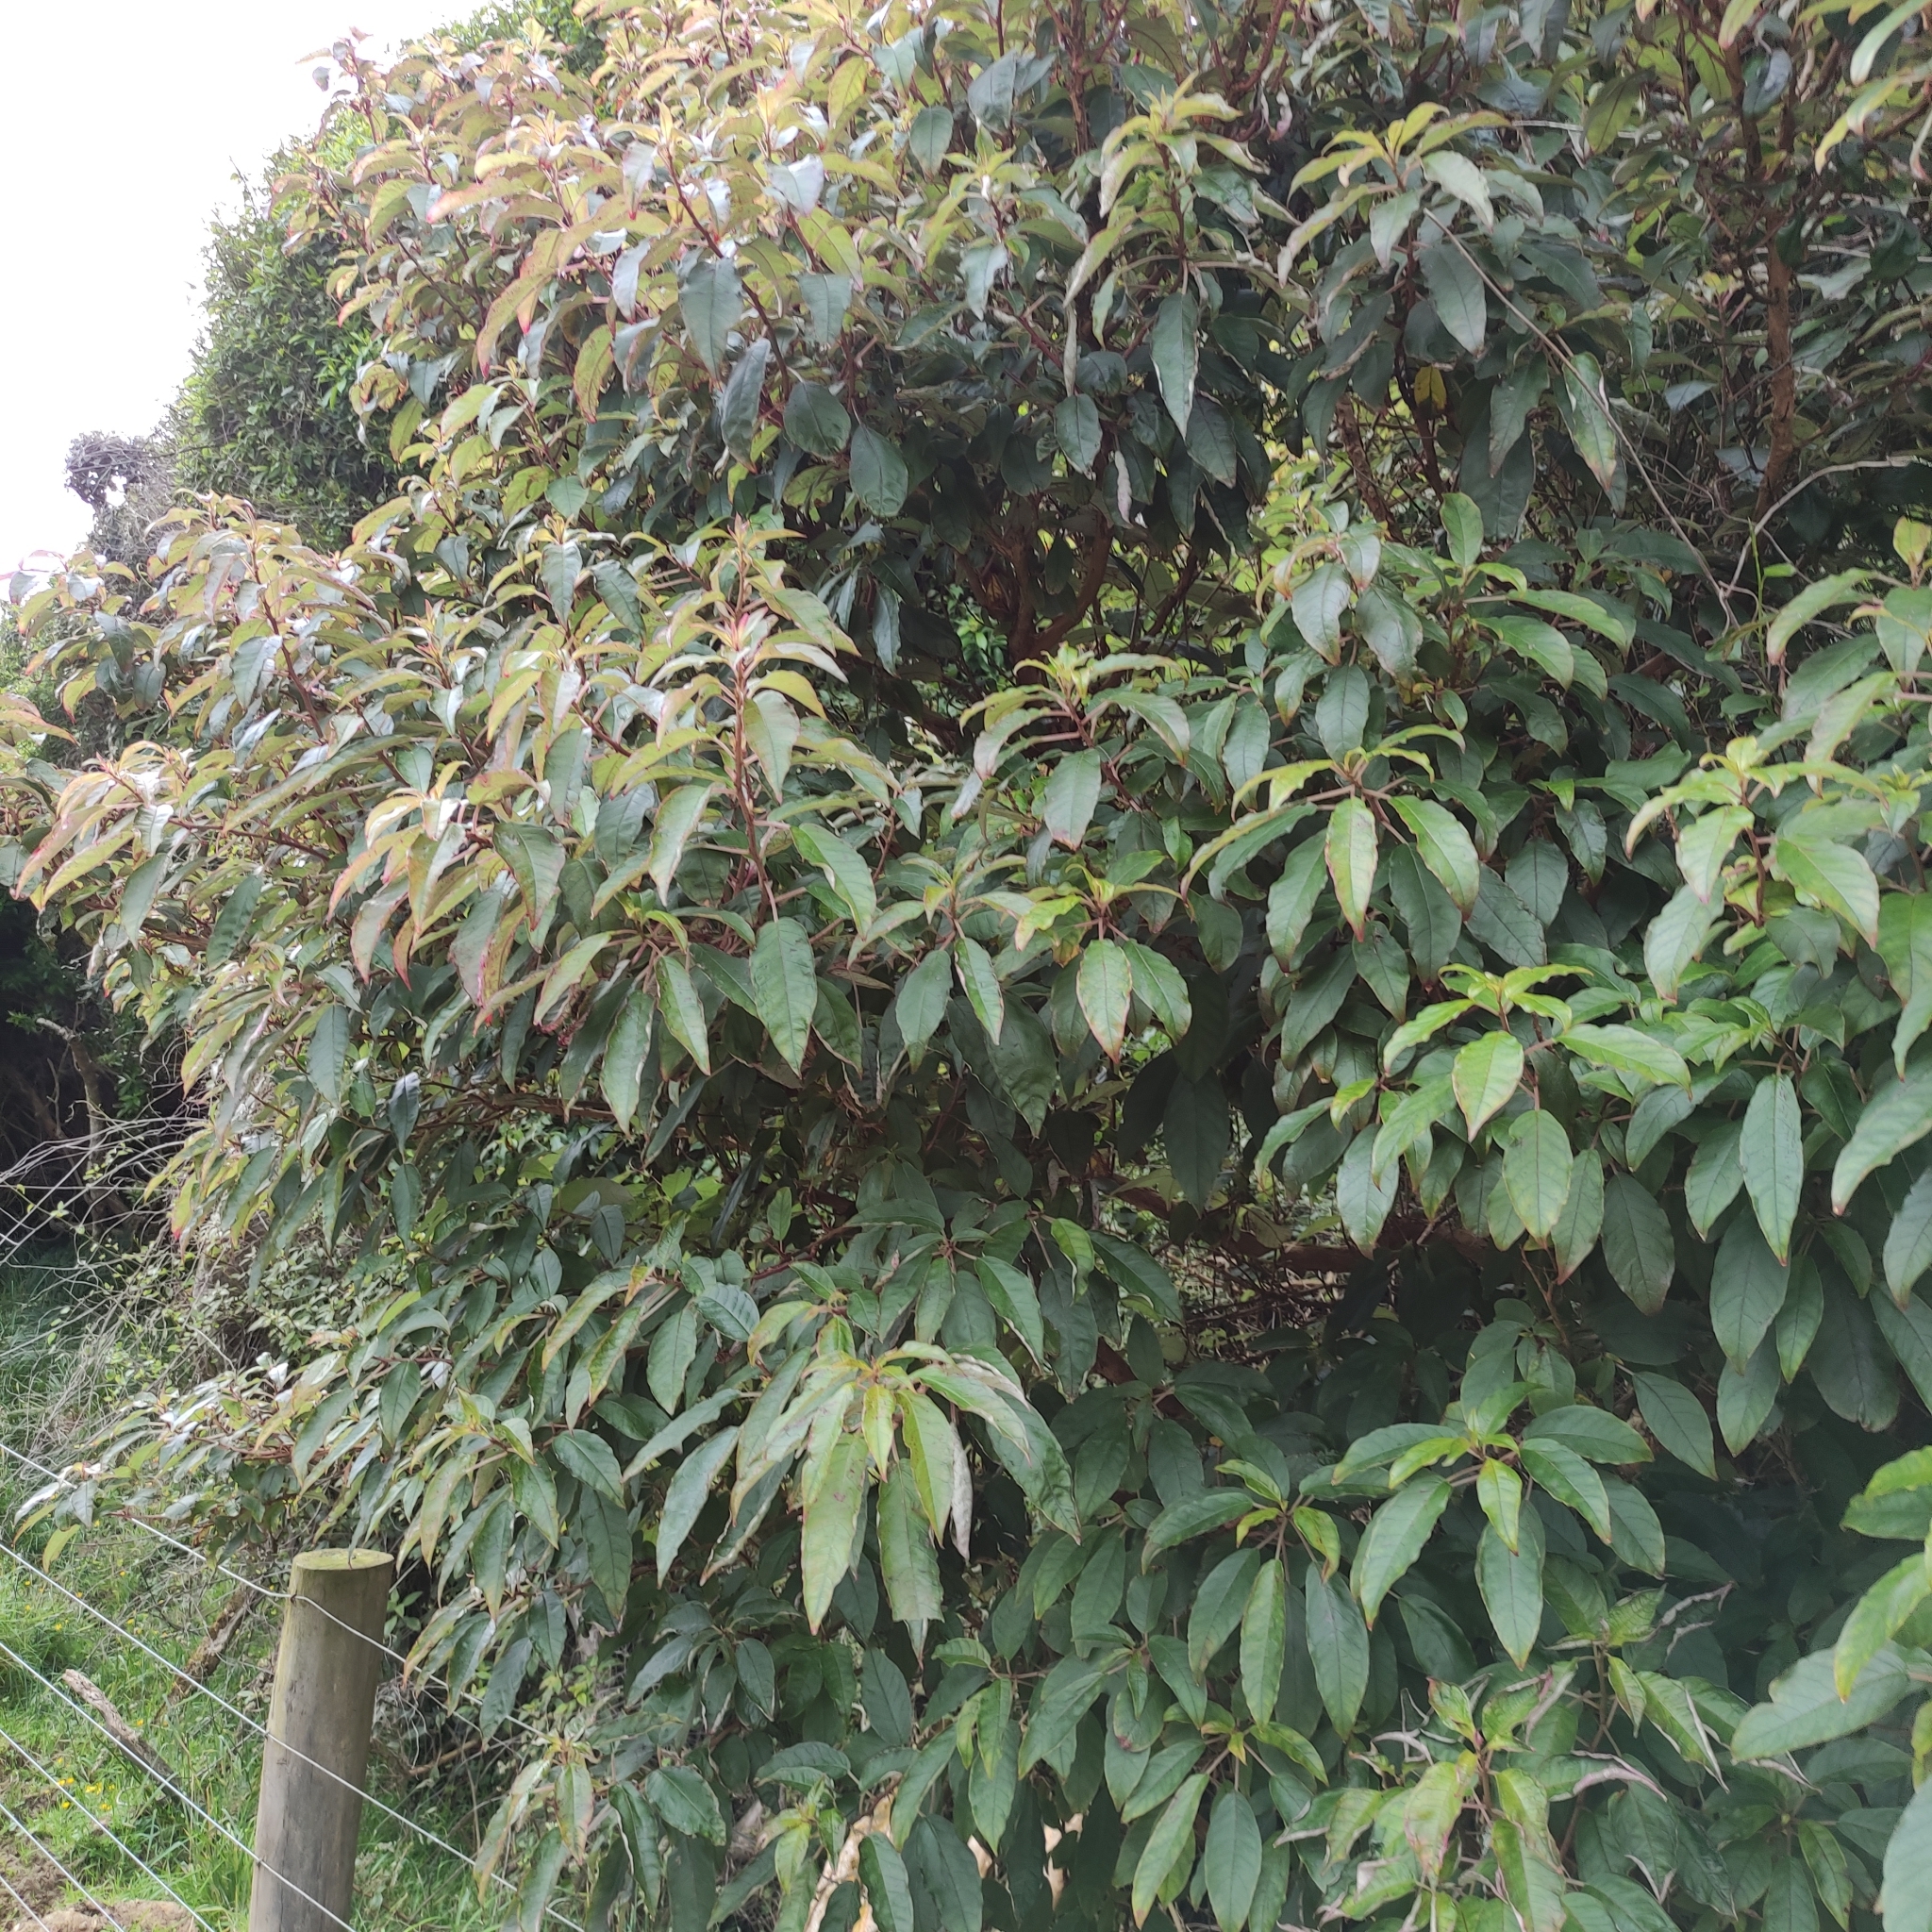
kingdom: Plantae
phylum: Tracheophyta
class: Magnoliopsida
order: Myrtales
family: Onagraceae
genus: Fuchsia
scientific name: Fuchsia excorticata
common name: Tree fuchsia
